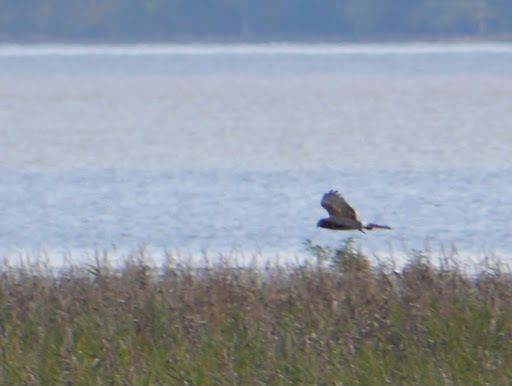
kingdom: Animalia
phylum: Chordata
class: Aves
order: Accipitriformes
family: Accipitridae
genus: Circus
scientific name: Circus cyaneus
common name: Hen harrier
